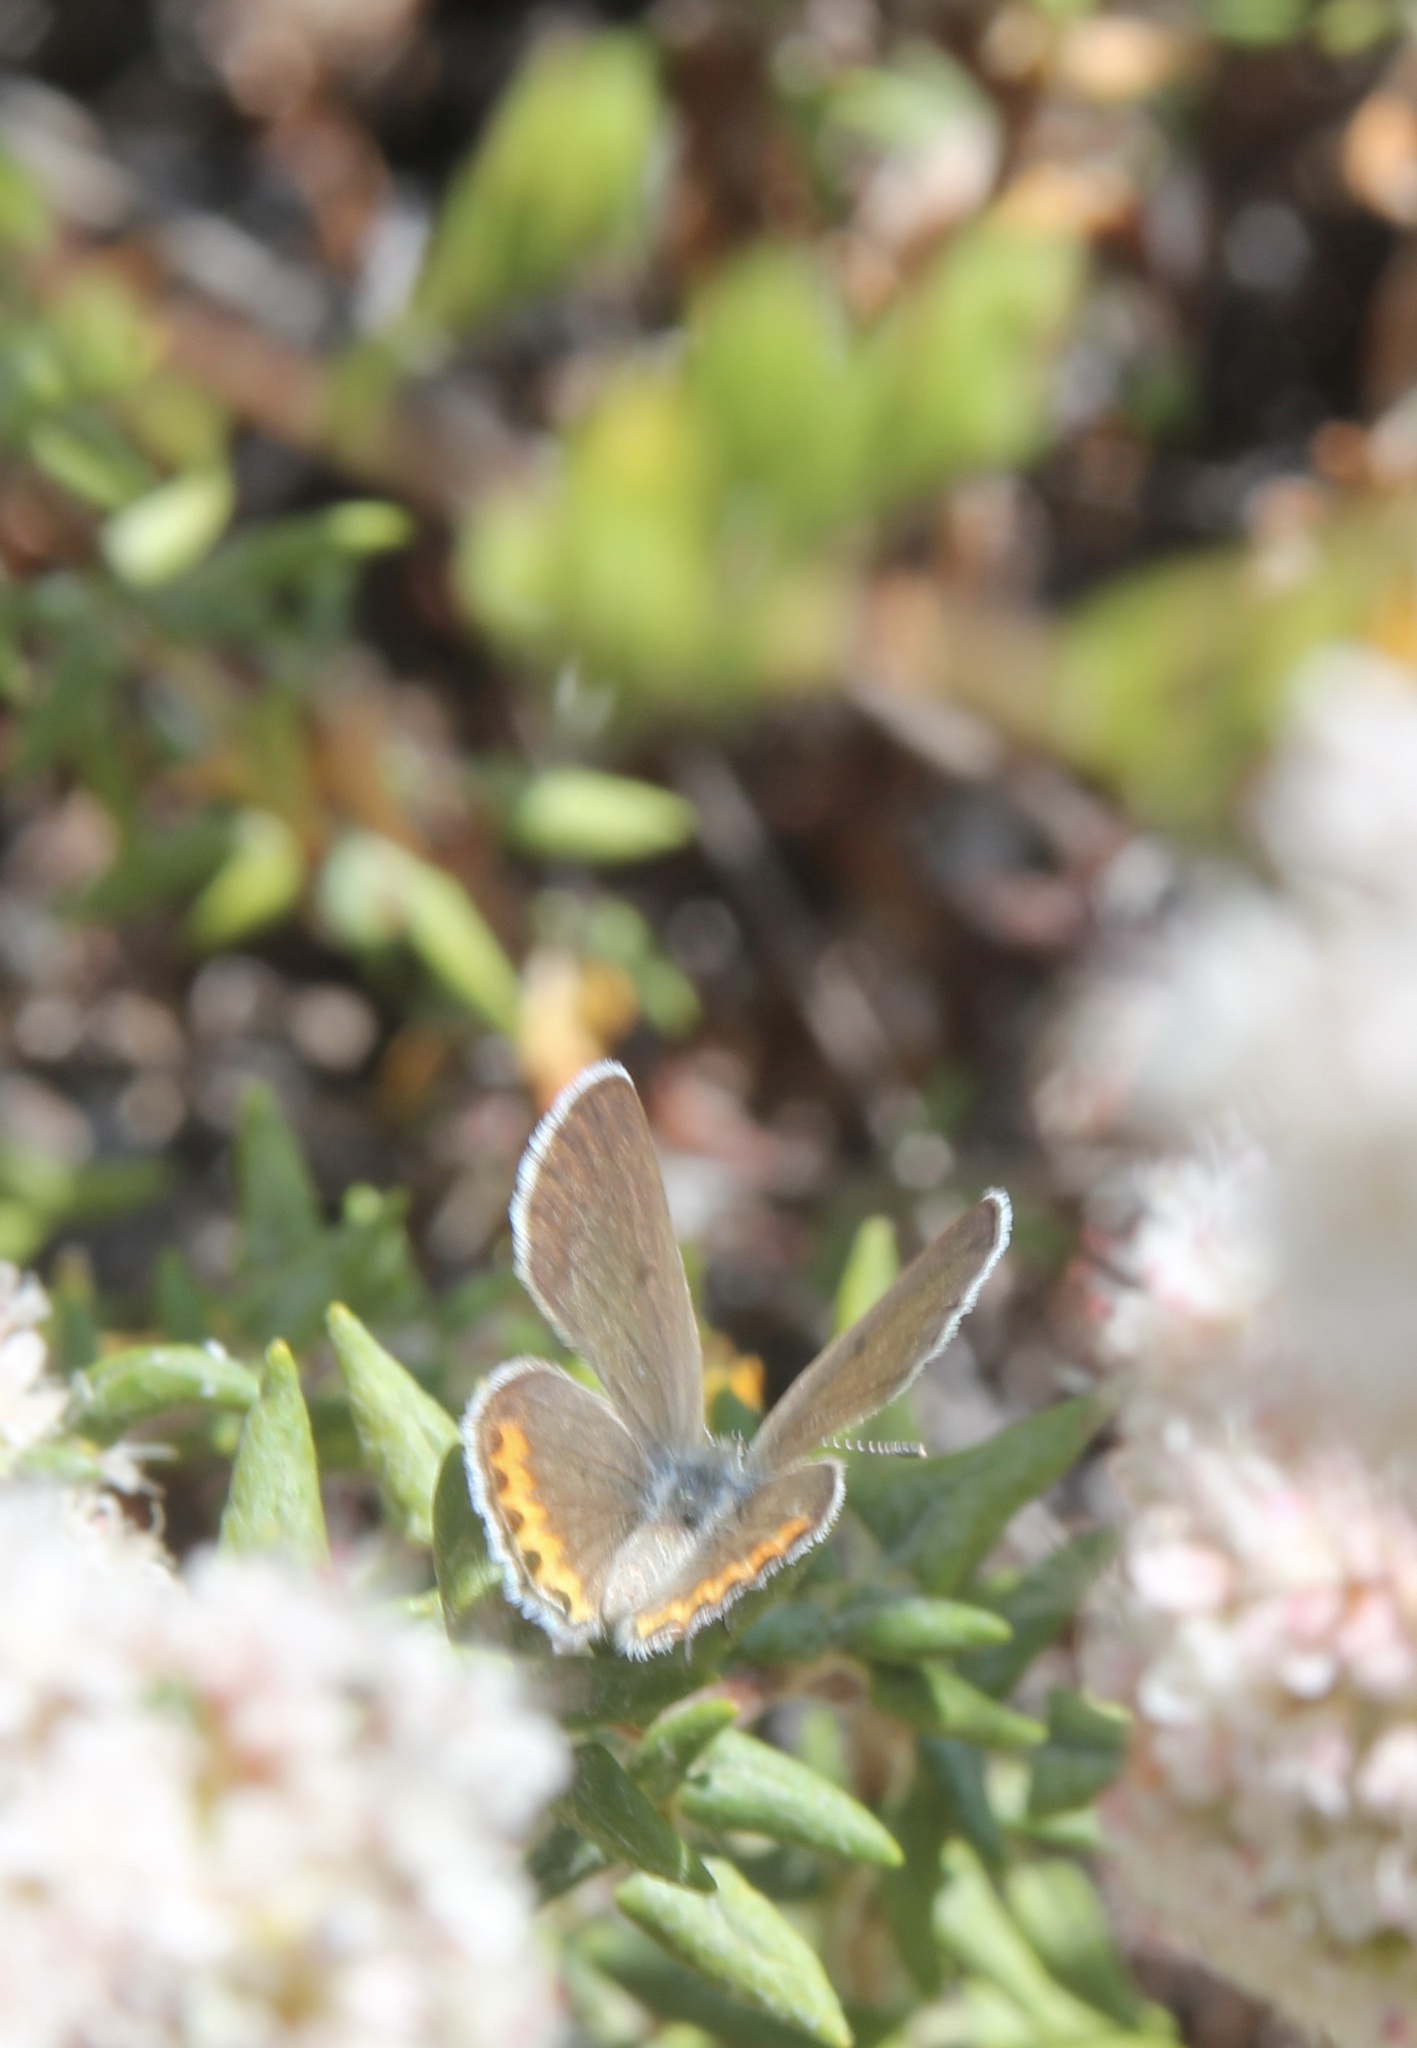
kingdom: Animalia
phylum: Arthropoda
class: Insecta
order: Lepidoptera
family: Lycaenidae
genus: Icaricia
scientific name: Icaricia acmon
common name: Acmon blue
